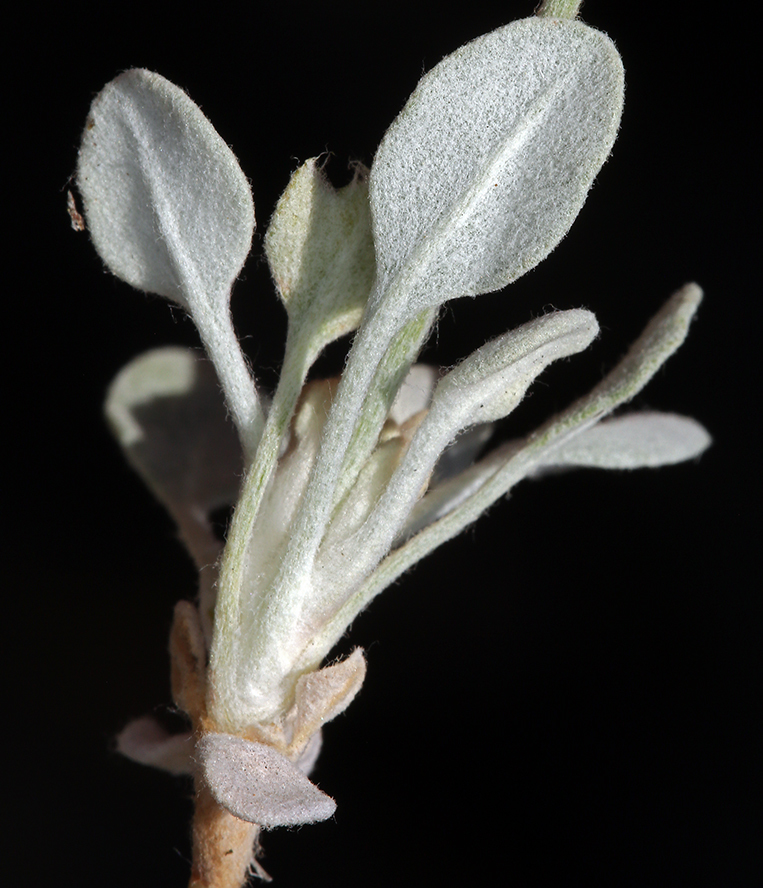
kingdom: Plantae
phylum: Tracheophyta
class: Magnoliopsida
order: Caryophyllales
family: Polygonaceae
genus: Eriogonum
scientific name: Eriogonum strictum
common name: Blue mountain buckwheat
